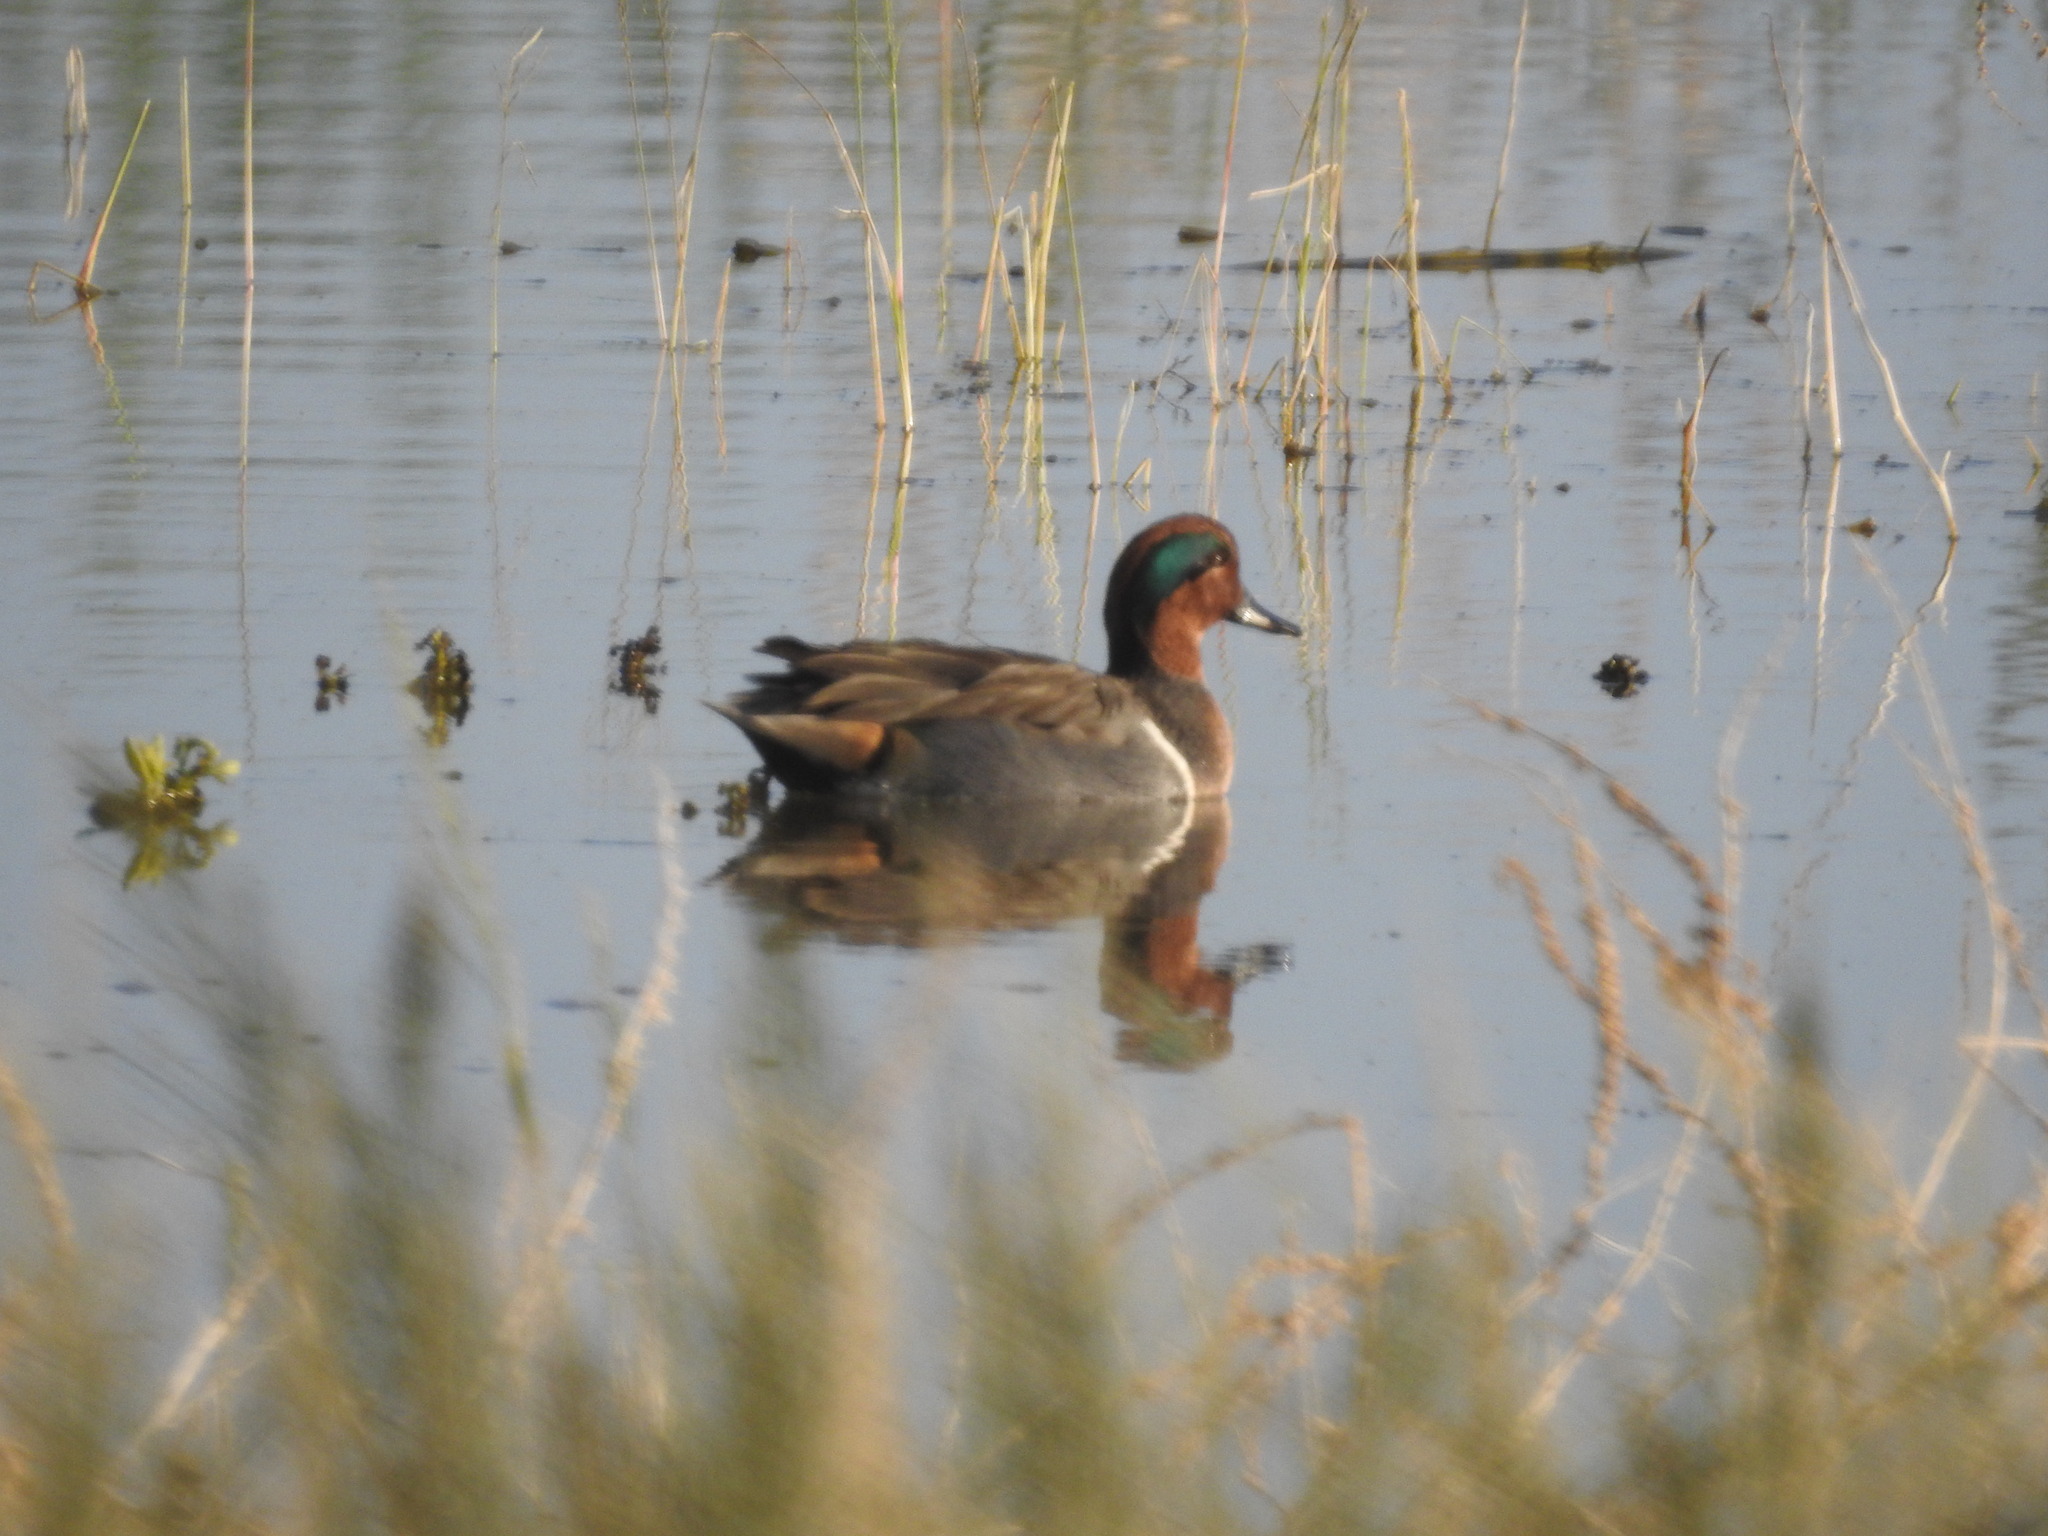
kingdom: Animalia
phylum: Chordata
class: Aves
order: Anseriformes
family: Anatidae
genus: Anas
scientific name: Anas crecca
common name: Eurasian teal
